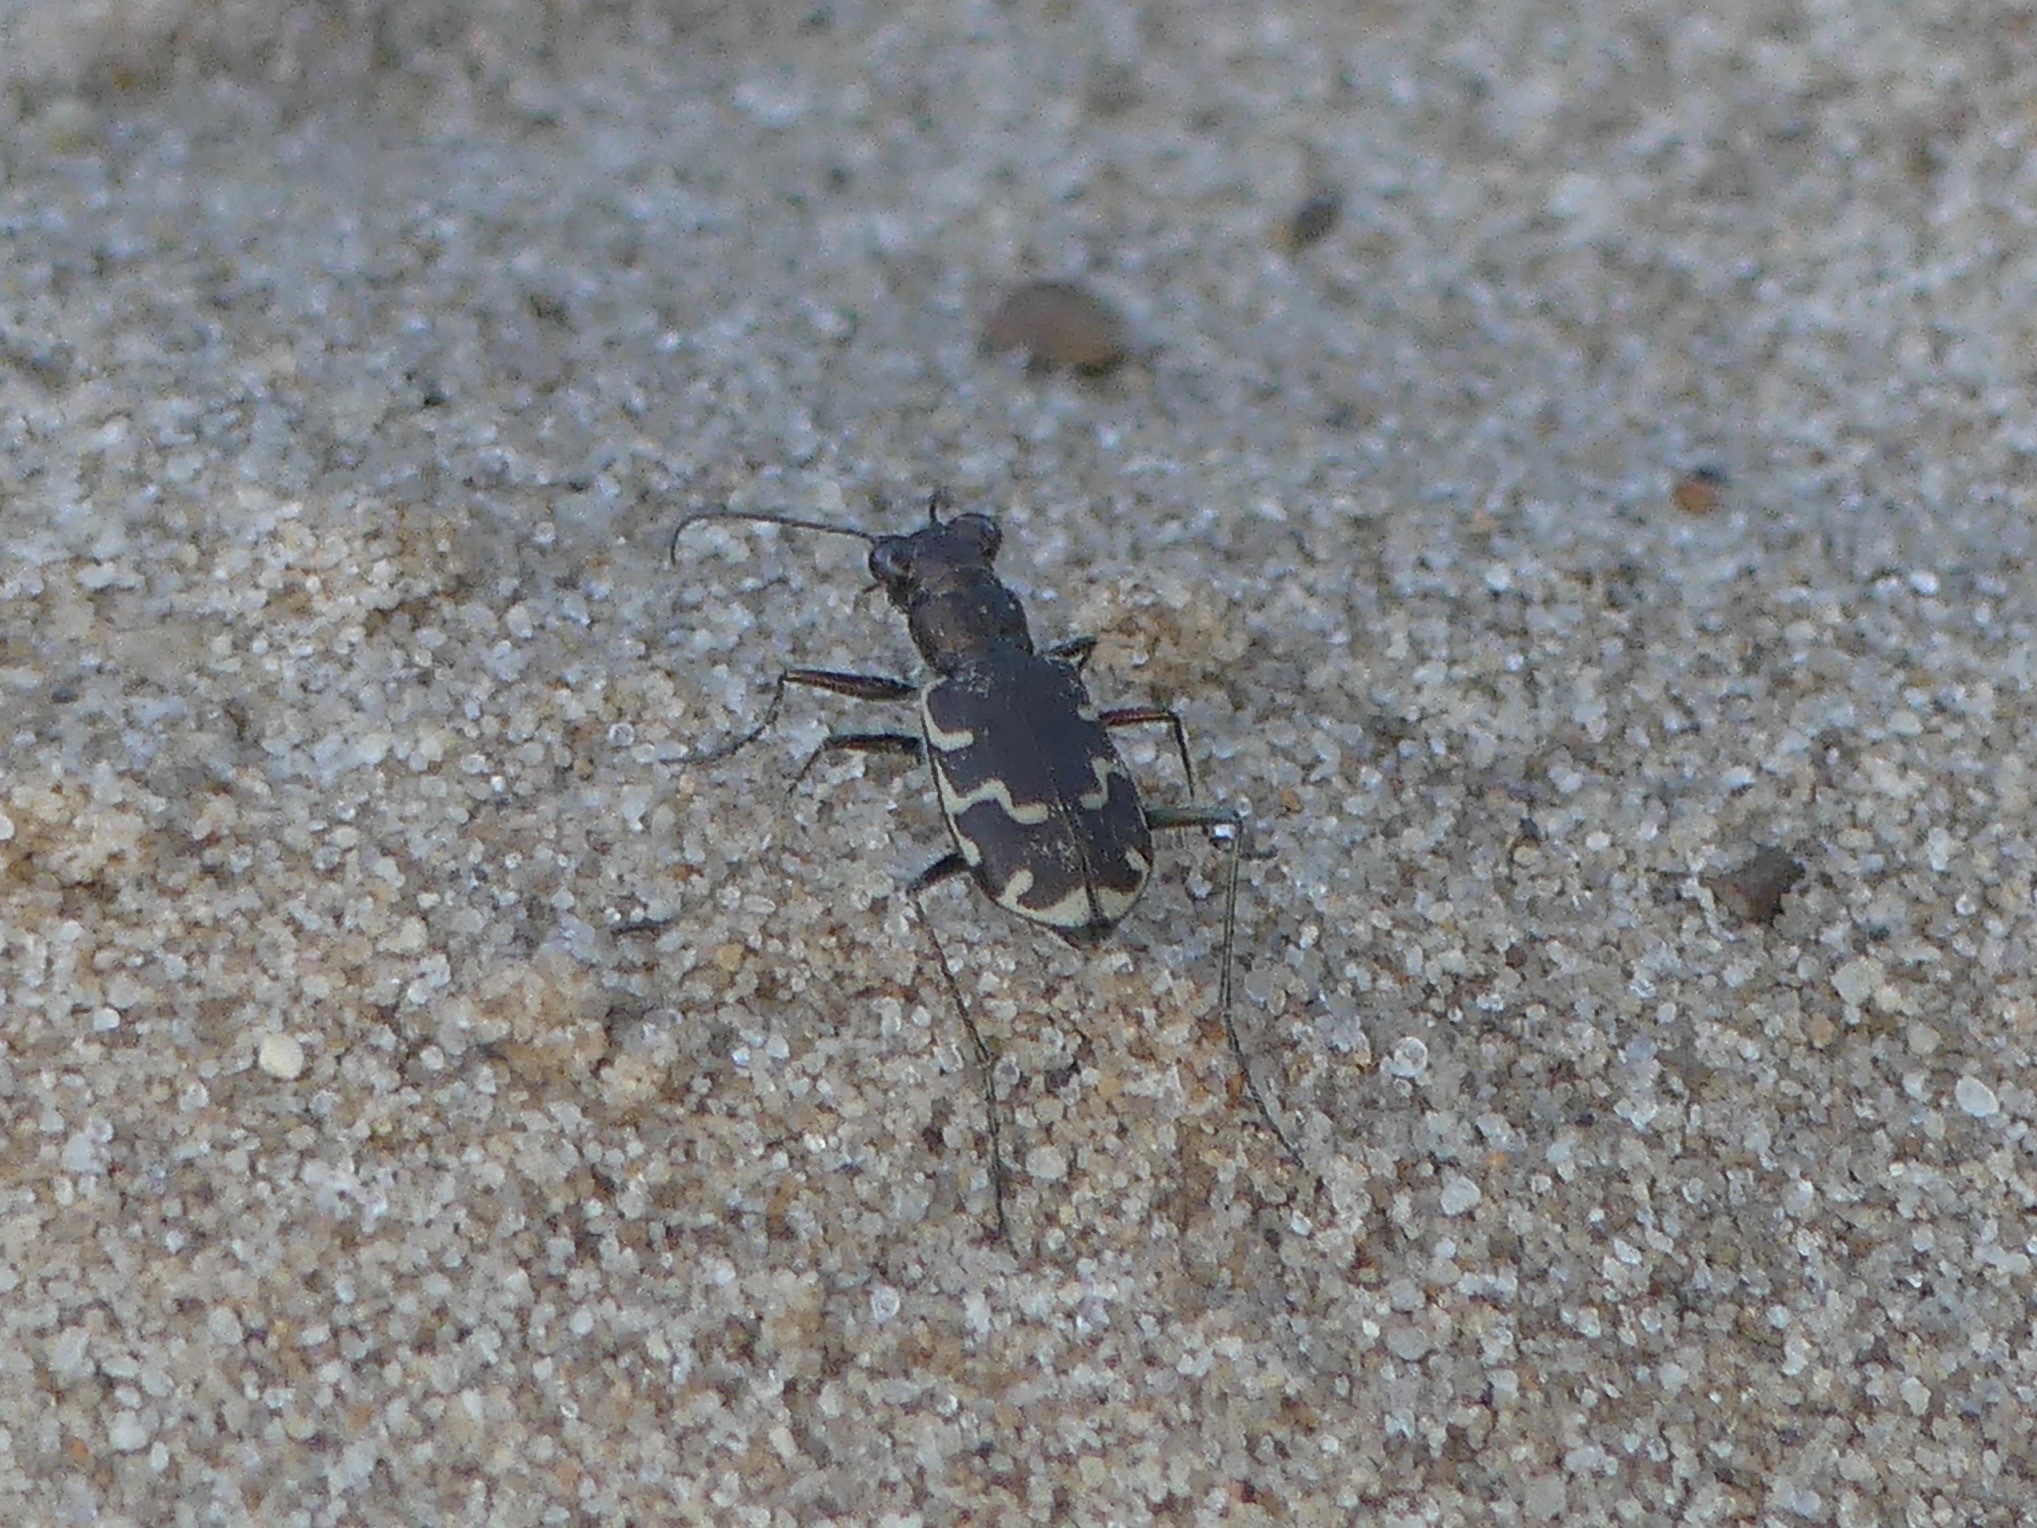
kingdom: Animalia
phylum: Arthropoda
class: Insecta
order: Coleoptera
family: Carabidae
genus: Cicindela
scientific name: Cicindela repanda
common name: Bronzed tiger beetle
